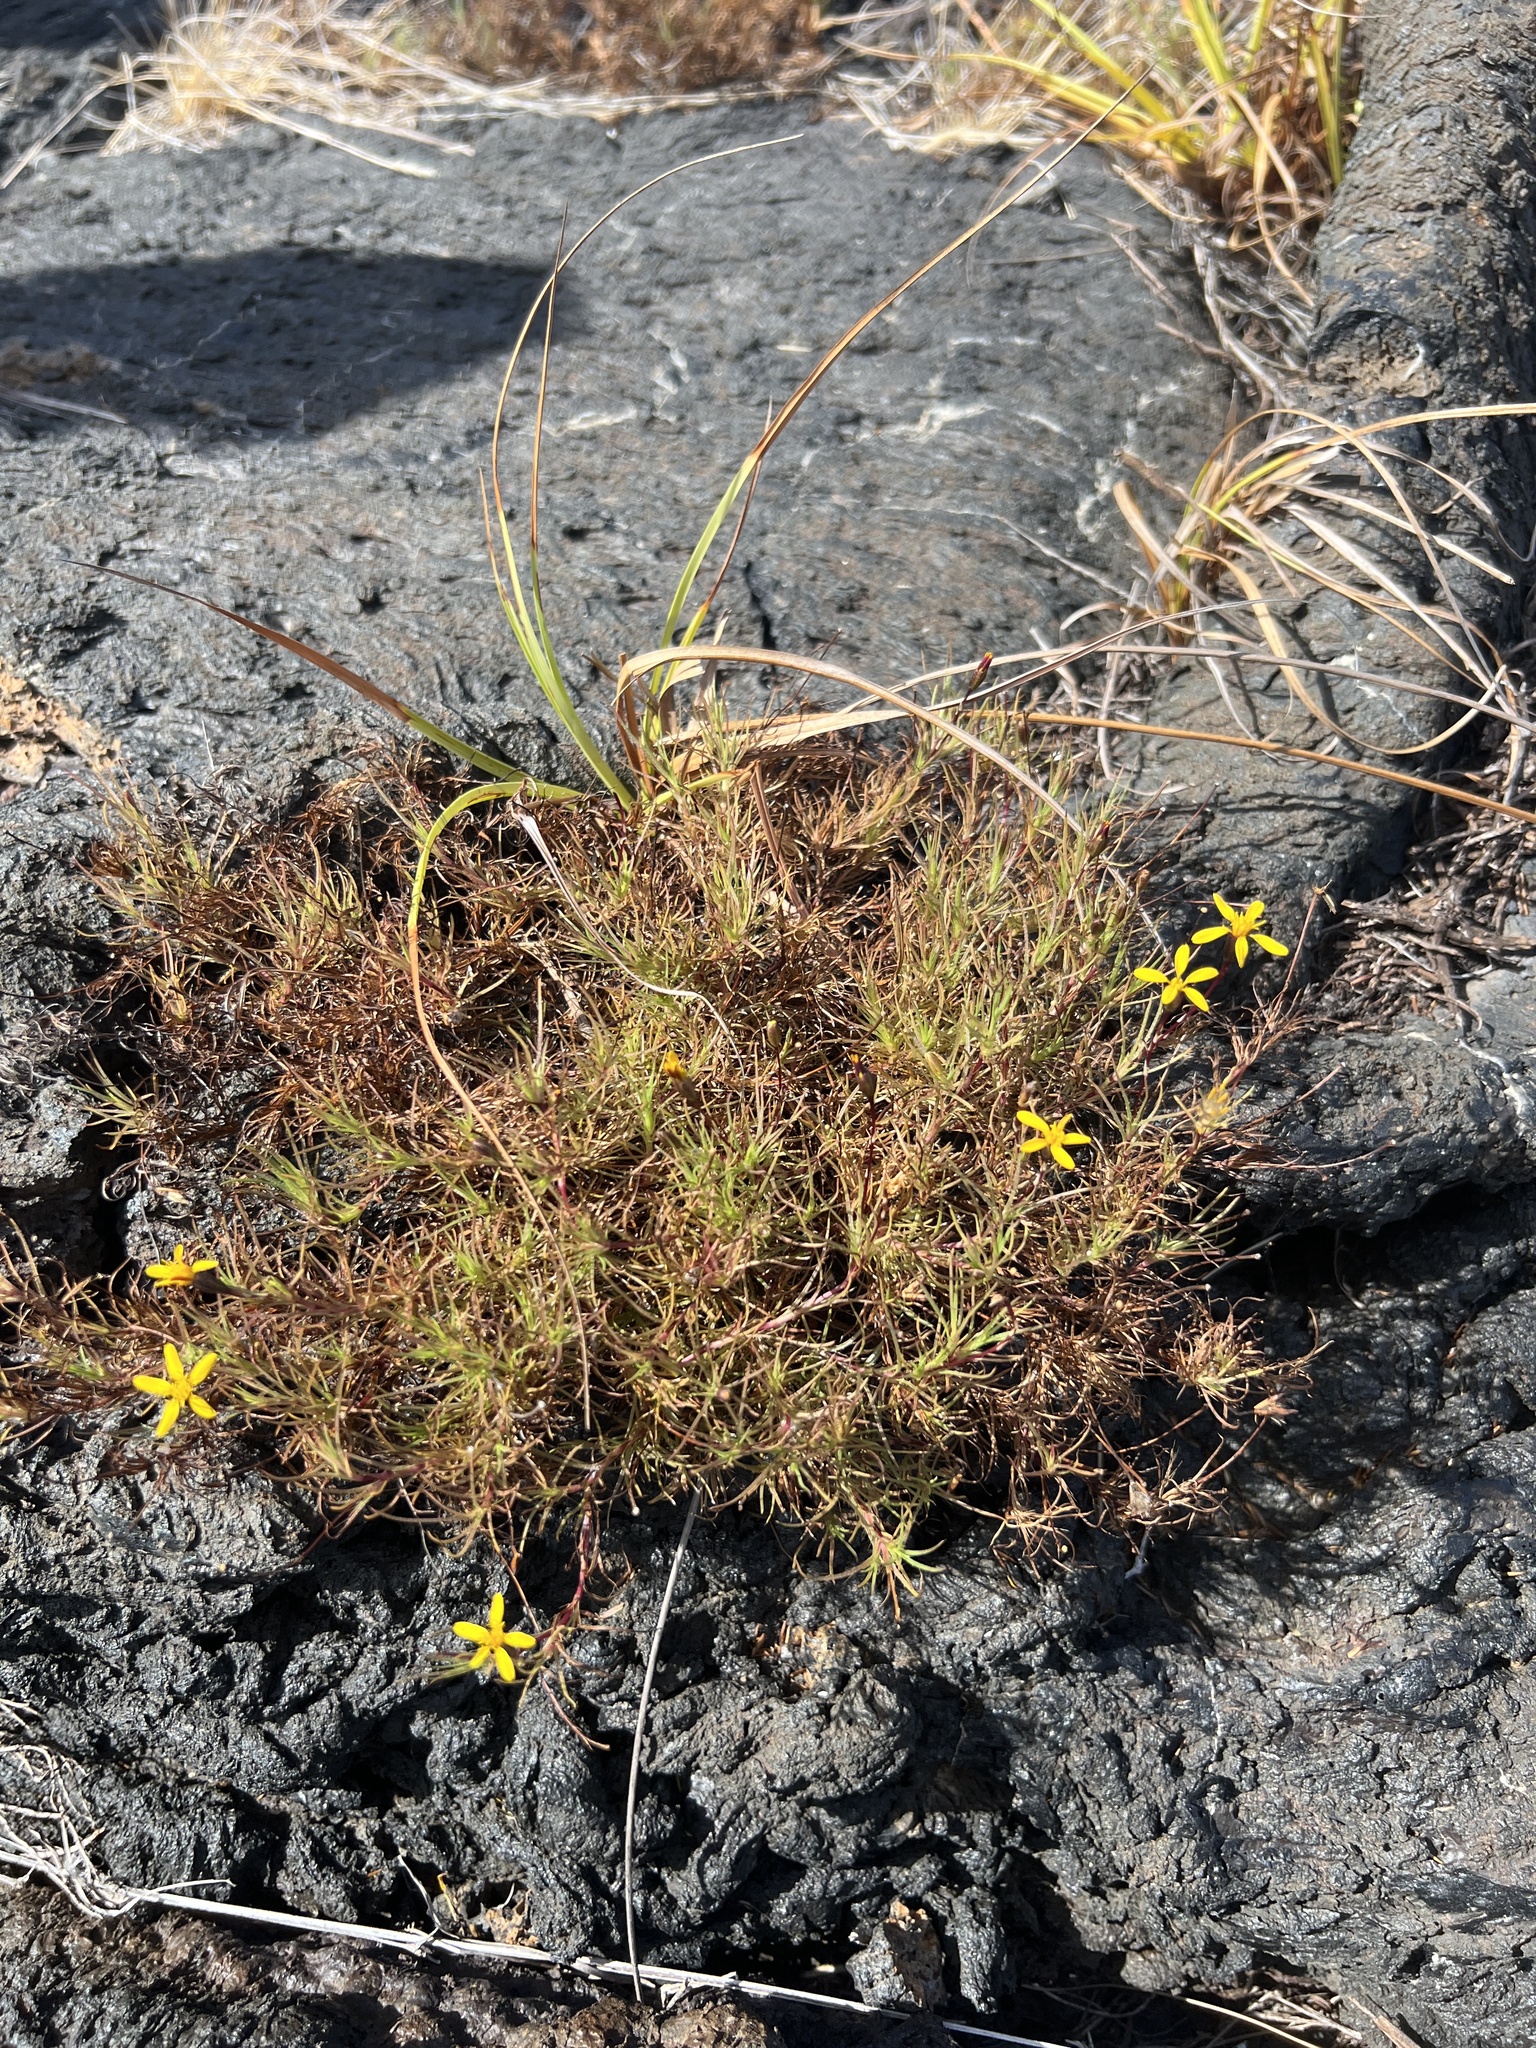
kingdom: Plantae
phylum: Tracheophyta
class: Magnoliopsida
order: Asterales
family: Asteraceae
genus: Pectis
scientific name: Pectis tenuifolia
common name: Oily pectis
